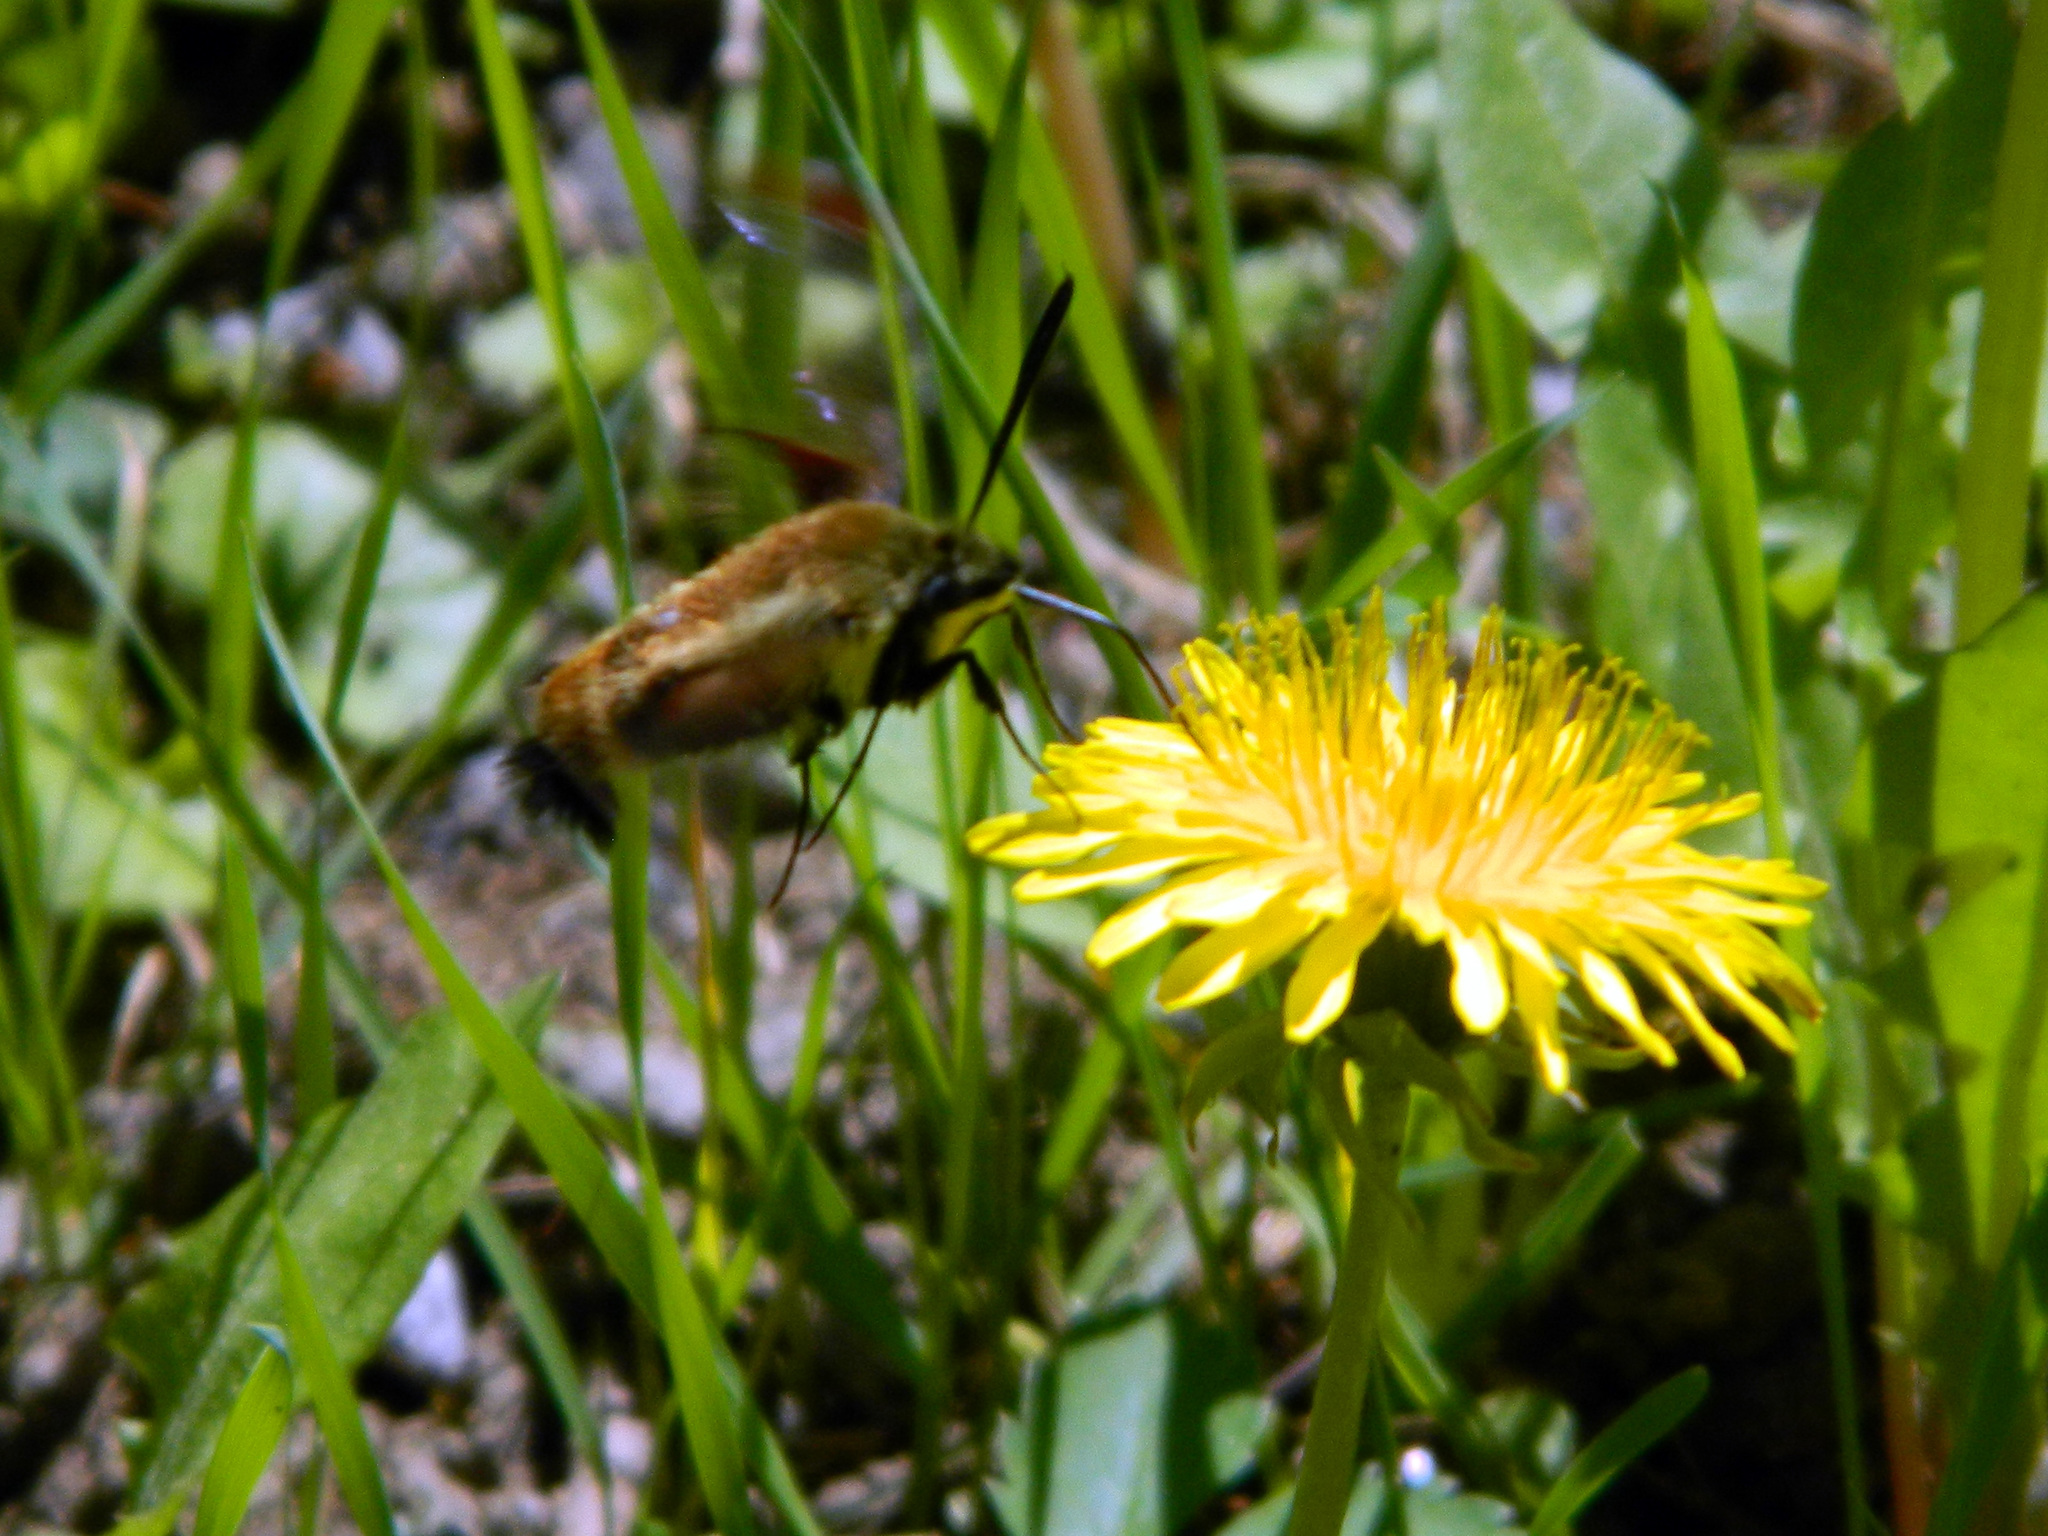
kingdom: Animalia
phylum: Arthropoda
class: Insecta
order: Lepidoptera
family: Sphingidae
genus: Hemaris
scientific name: Hemaris diffinis
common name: Bumblebee moth
